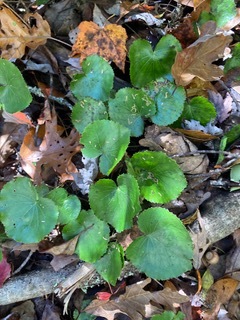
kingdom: Plantae
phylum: Tracheophyta
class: Magnoliopsida
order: Ericales
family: Diapensiaceae
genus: Galax
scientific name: Galax urceolata
